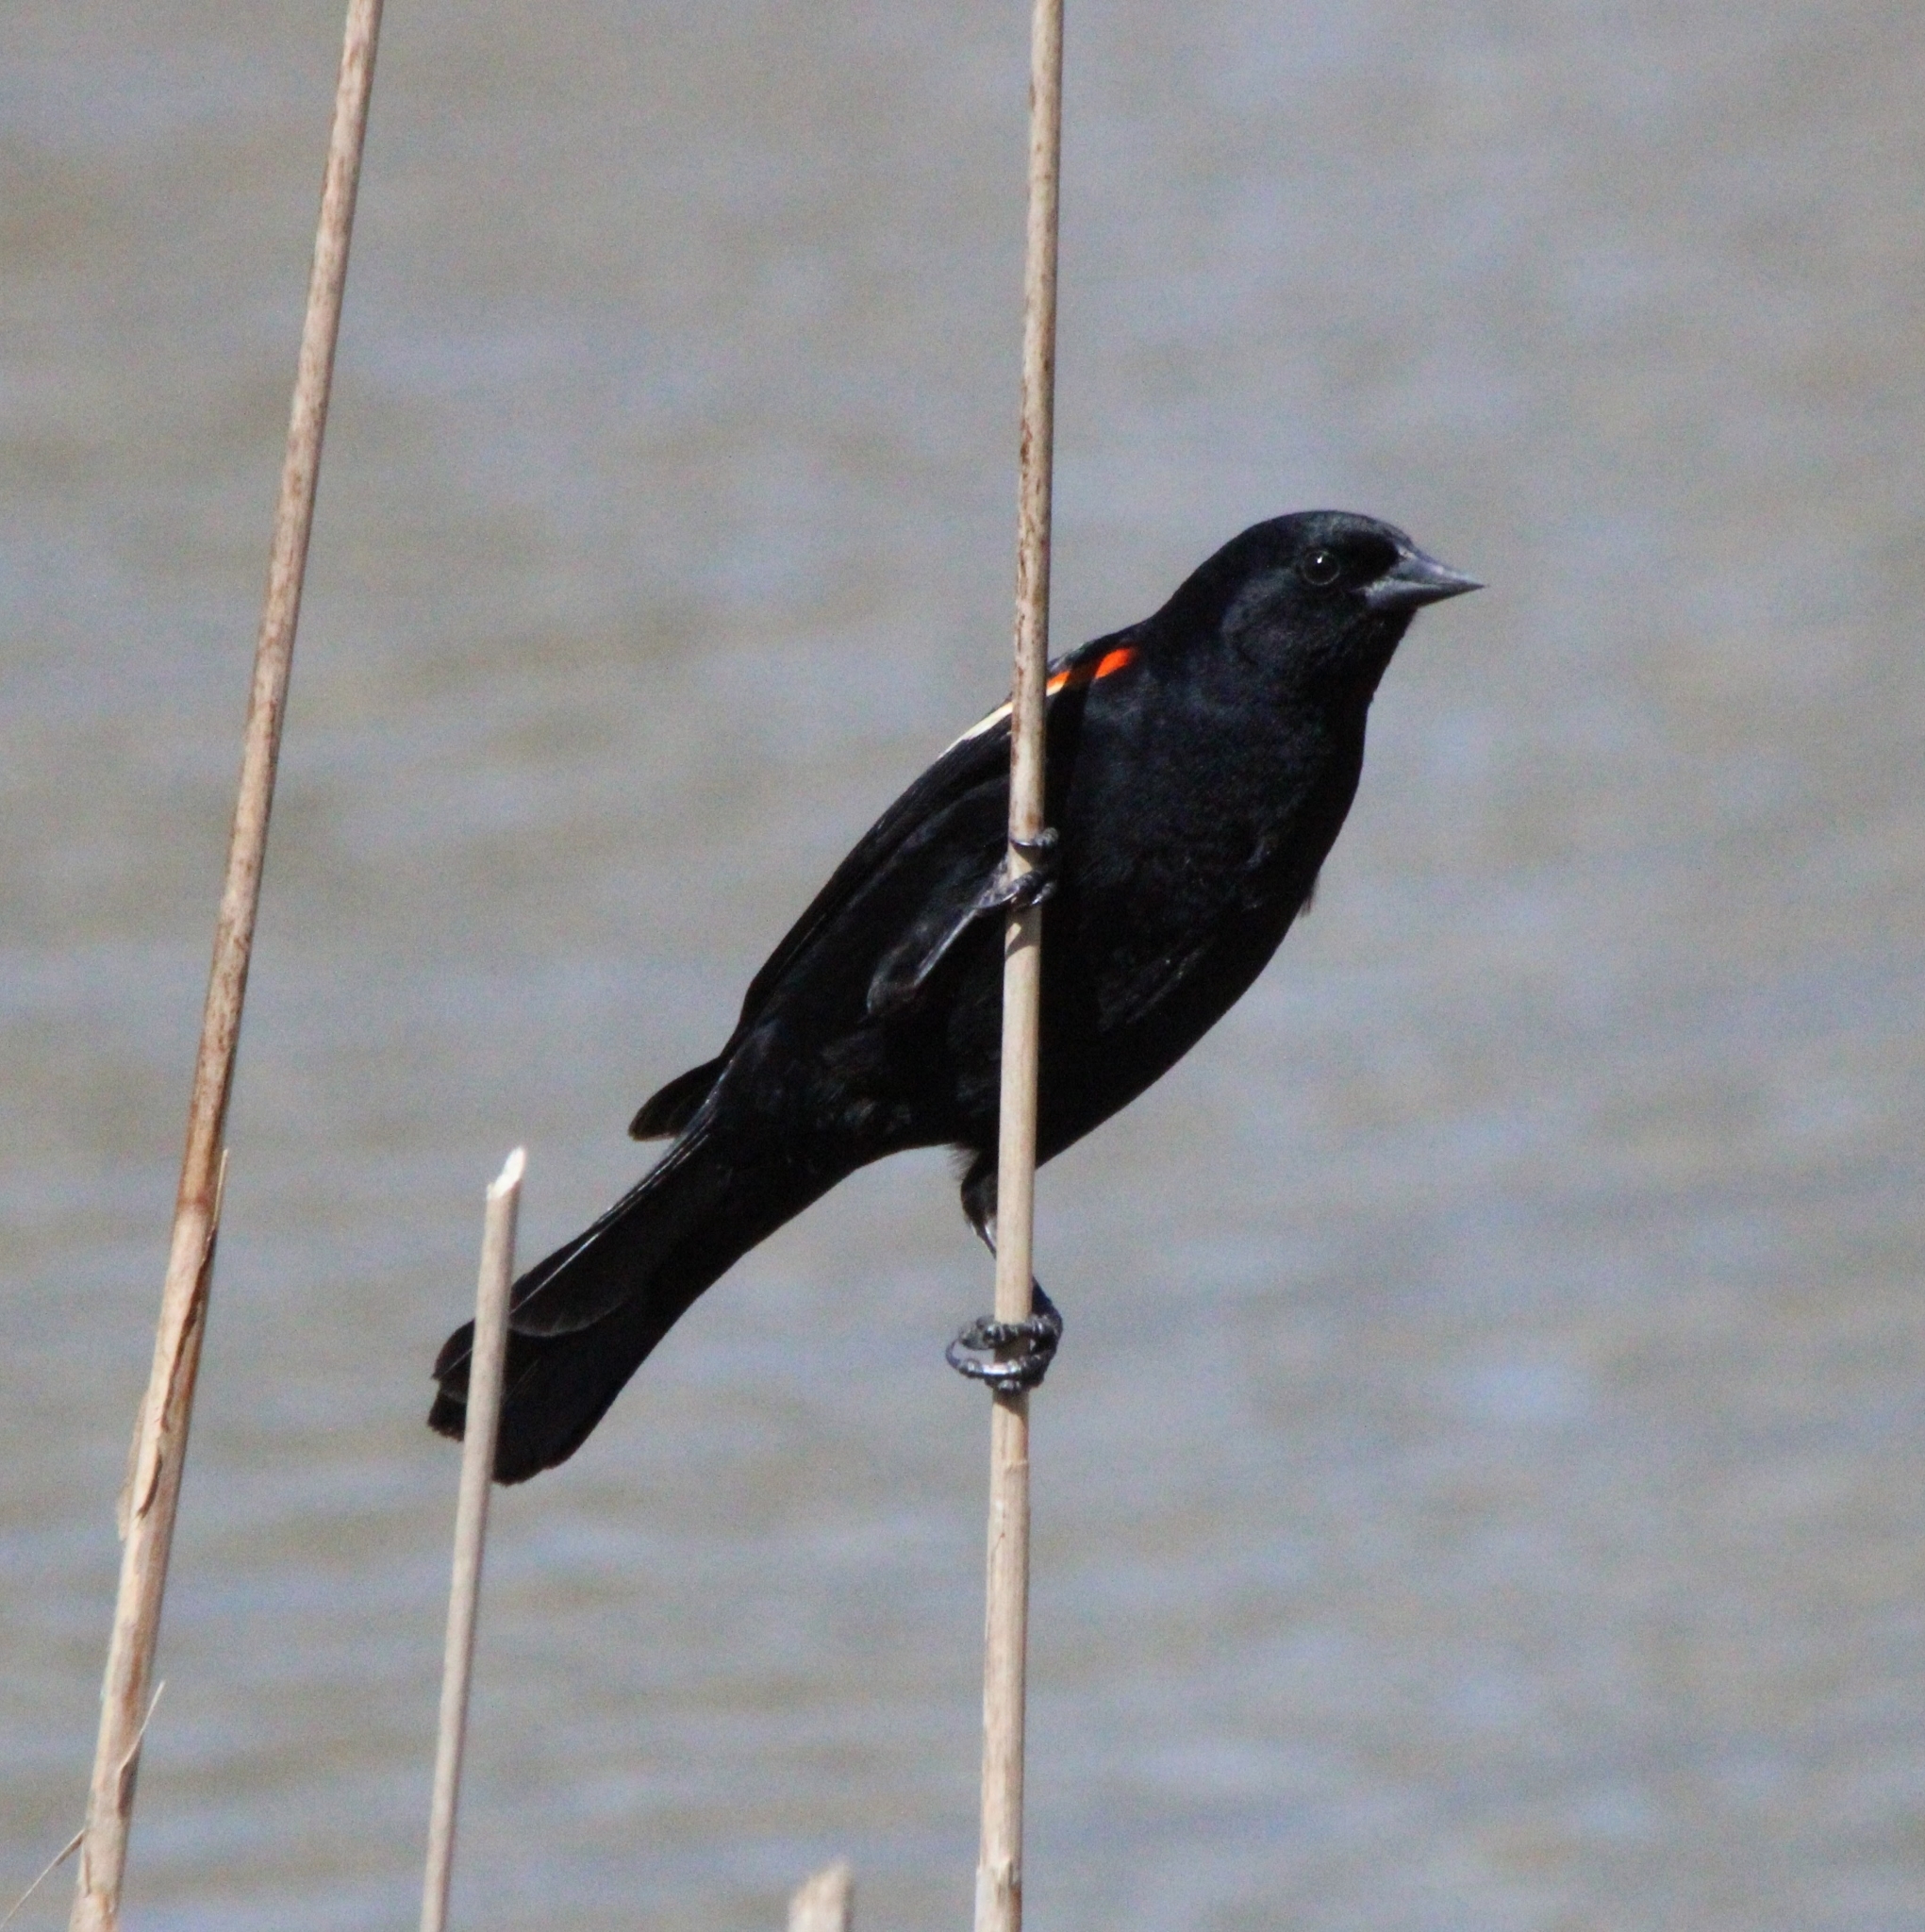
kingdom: Animalia
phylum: Chordata
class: Aves
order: Passeriformes
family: Icteridae
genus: Agelaius
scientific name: Agelaius phoeniceus
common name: Red-winged blackbird
